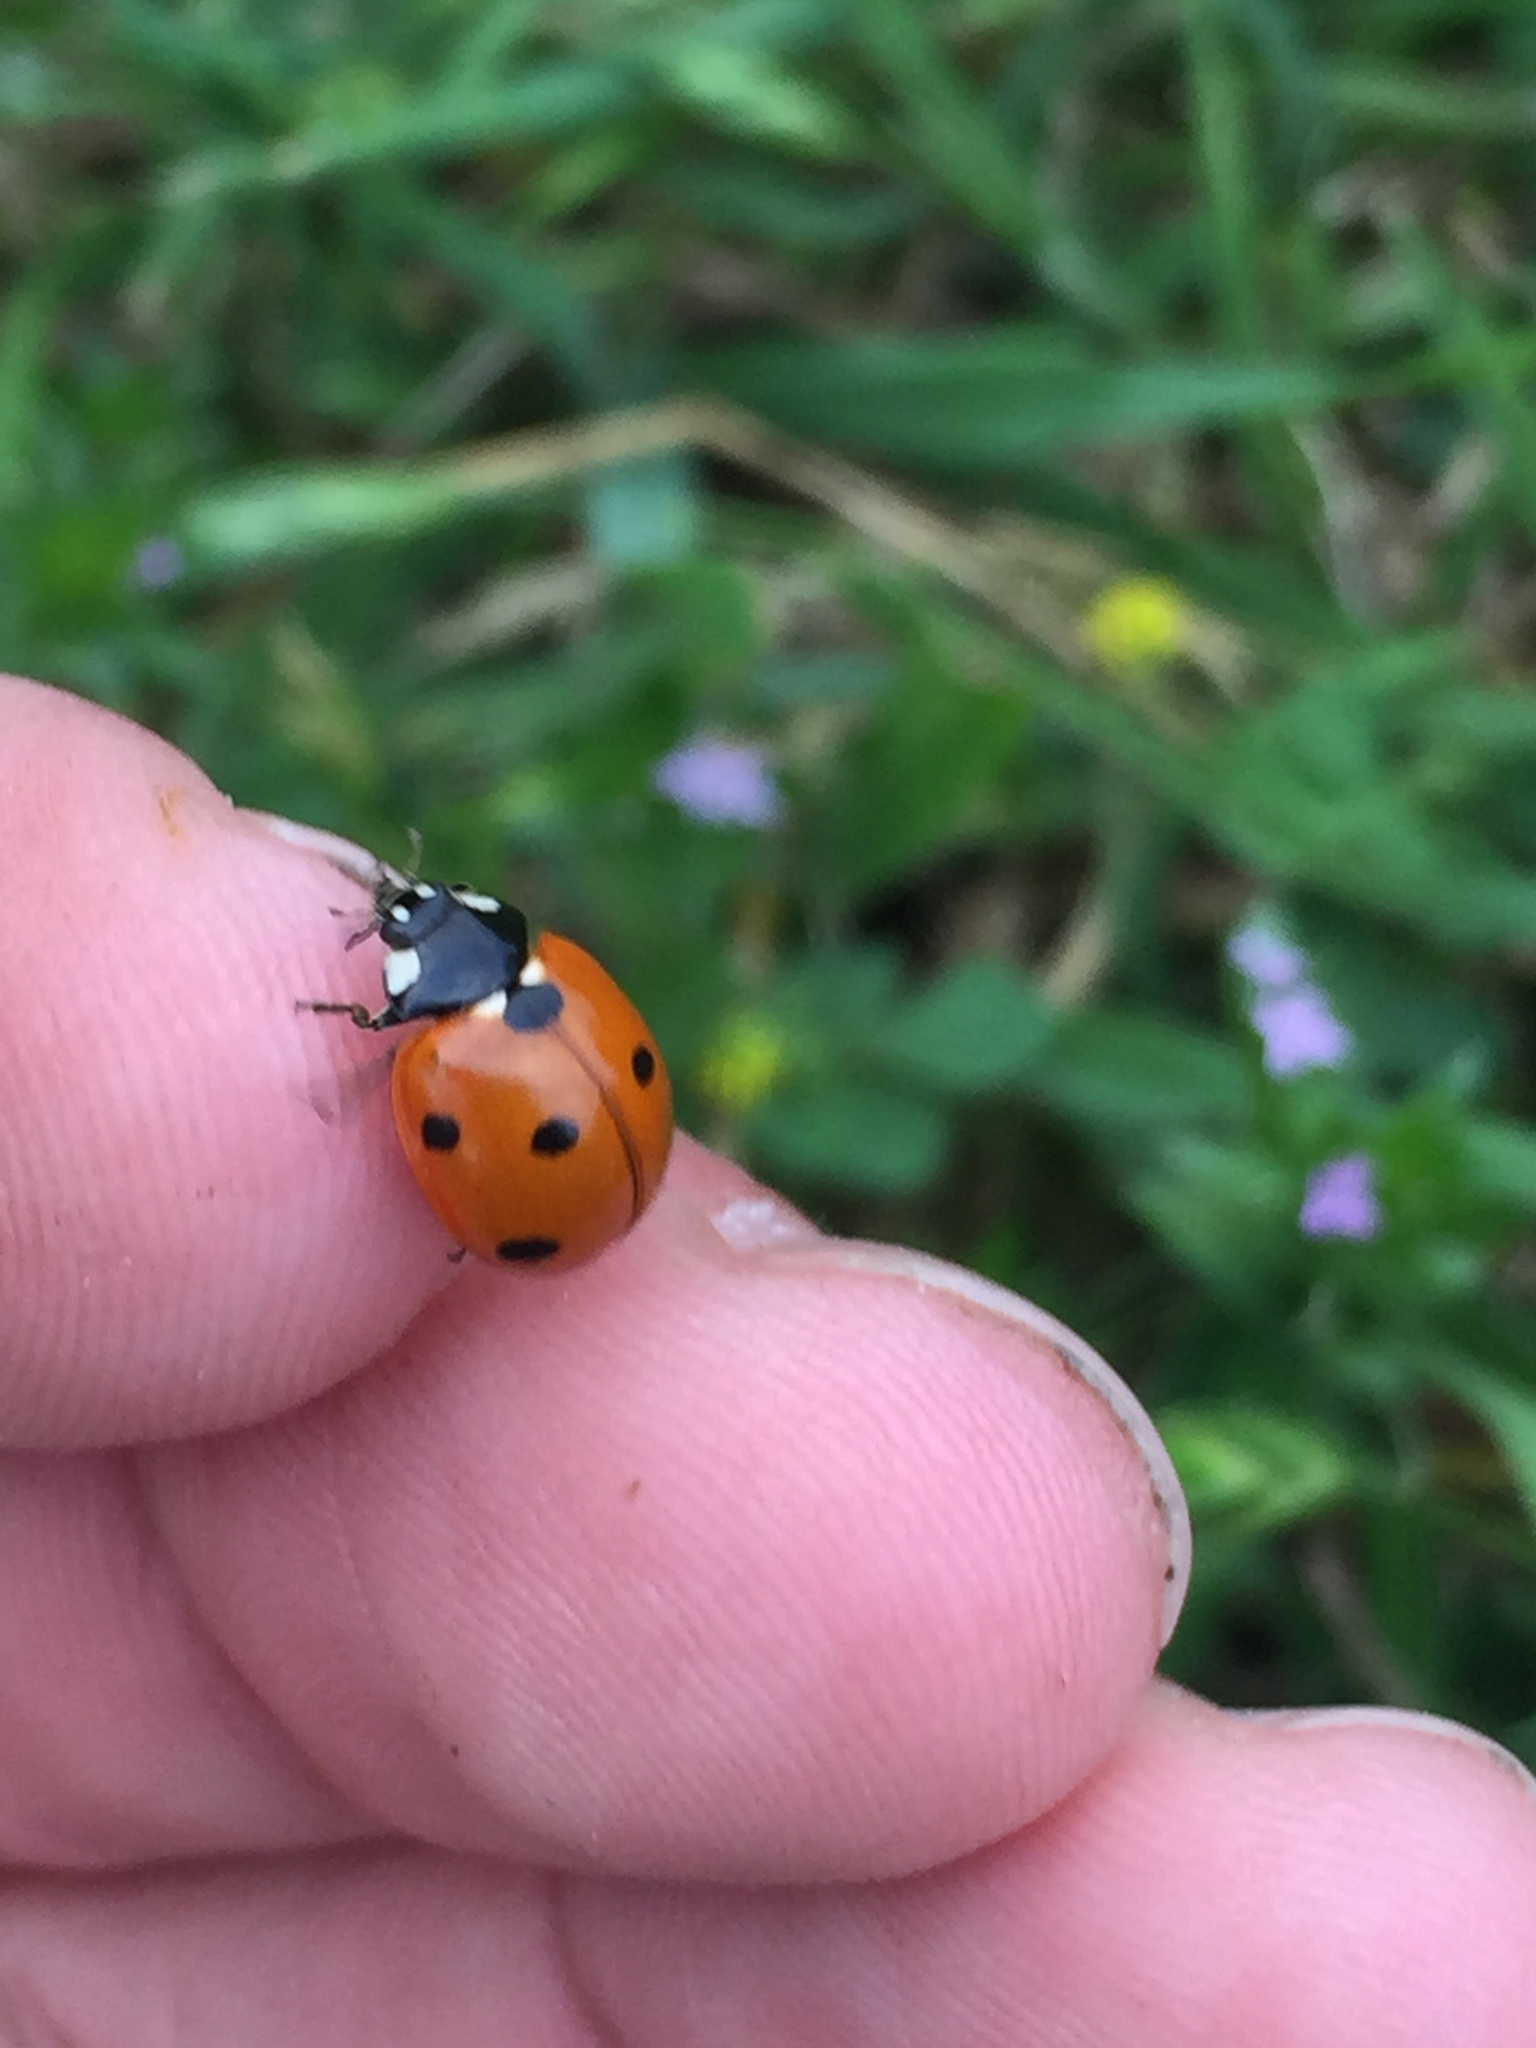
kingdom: Animalia
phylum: Arthropoda
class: Insecta
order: Coleoptera
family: Coccinellidae
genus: Coccinella
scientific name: Coccinella septempunctata
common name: Sevenspotted lady beetle
